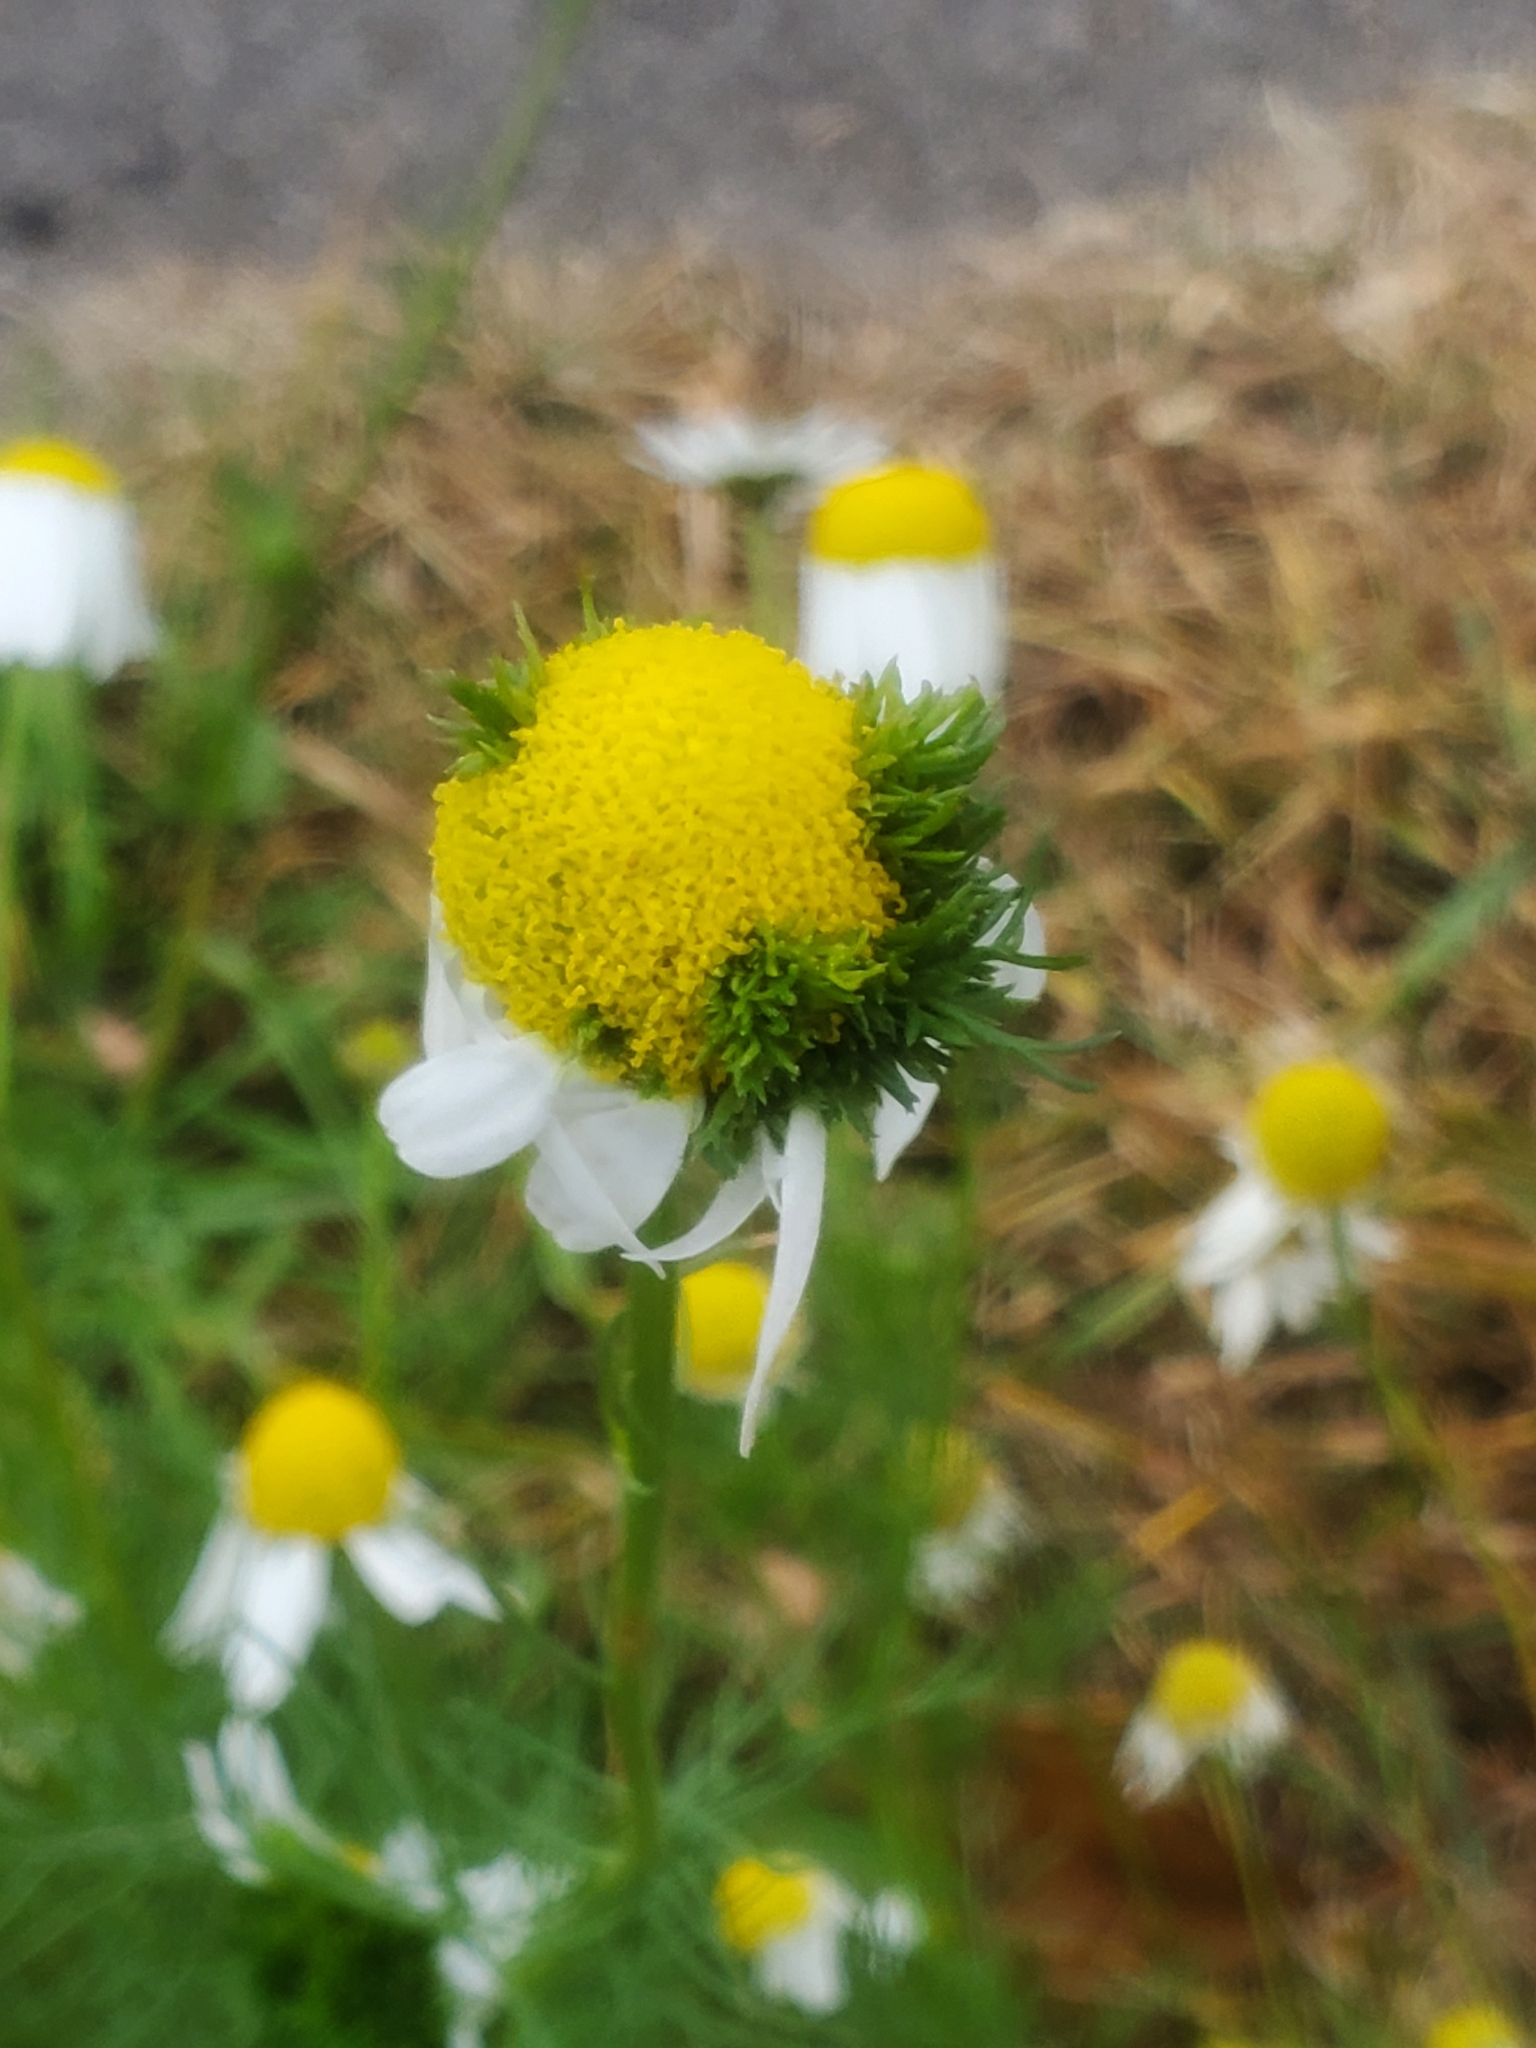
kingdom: Plantae
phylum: Tracheophyta
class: Magnoliopsida
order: Asterales
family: Asteraceae
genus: Tripleurospermum
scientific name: Tripleurospermum inodorum
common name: Scentless mayweed
